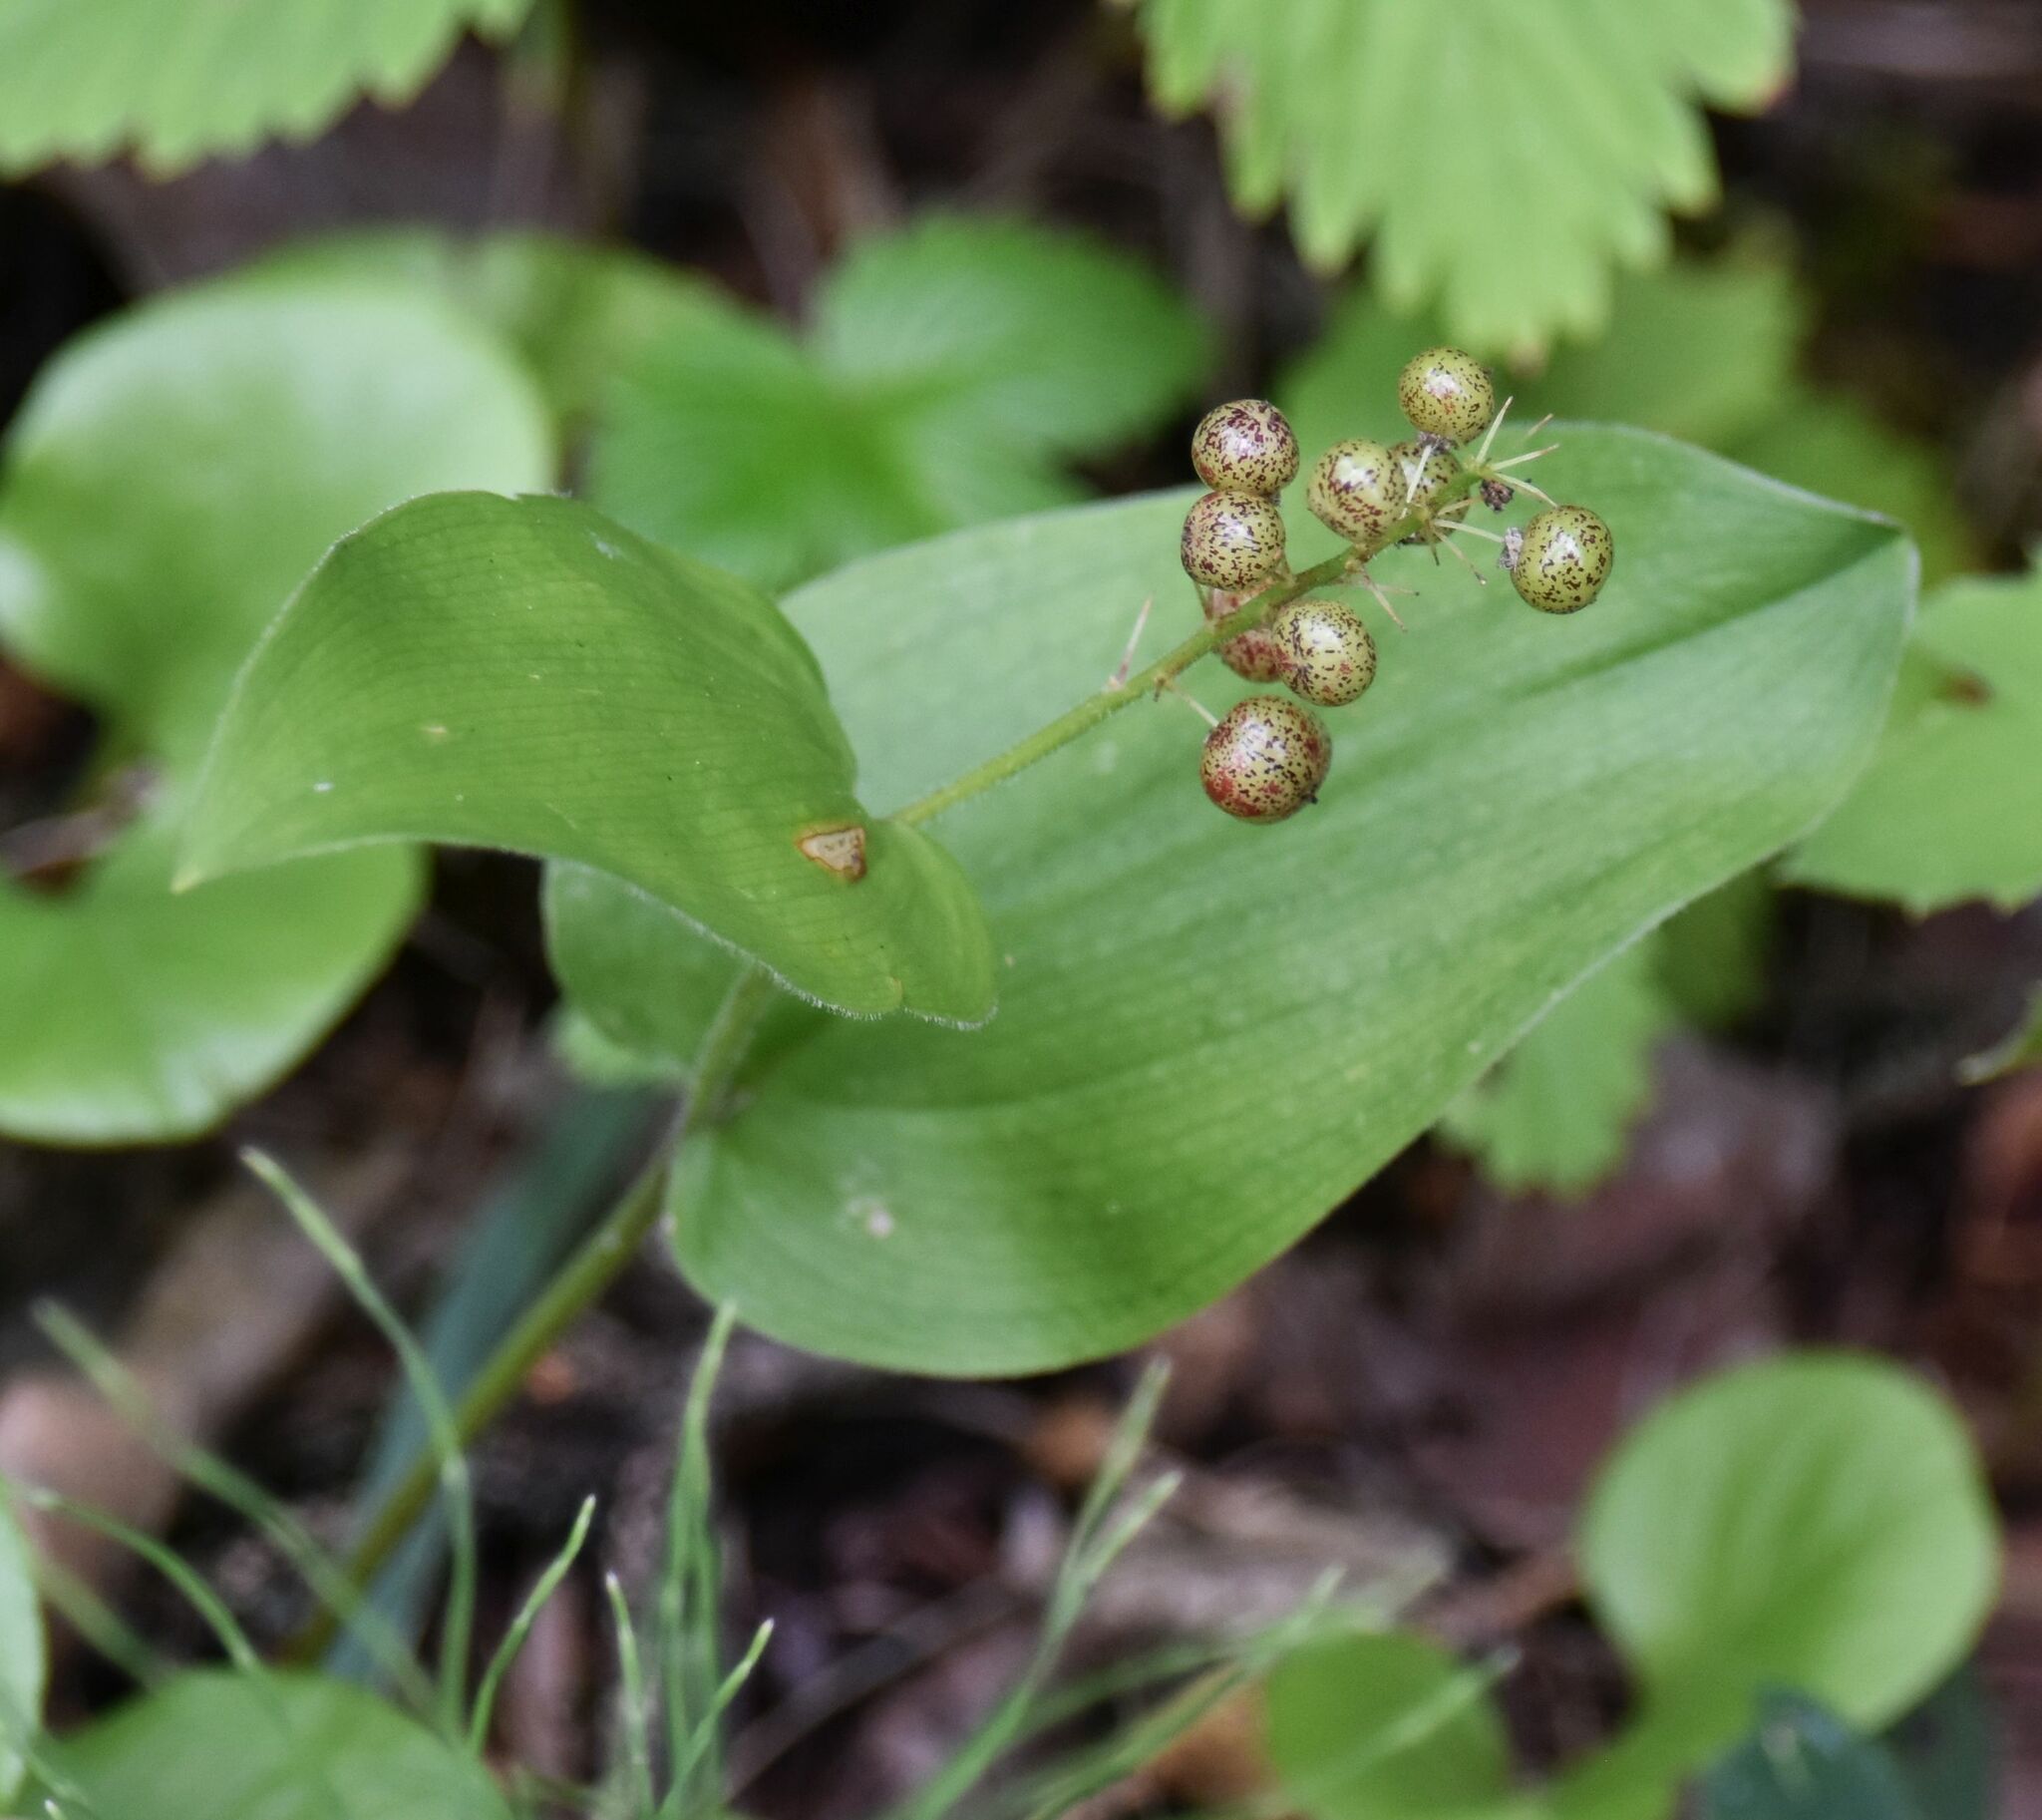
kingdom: Plantae
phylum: Tracheophyta
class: Liliopsida
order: Asparagales
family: Asparagaceae
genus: Maianthemum
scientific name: Maianthemum canadense
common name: False lily-of-the-valley
